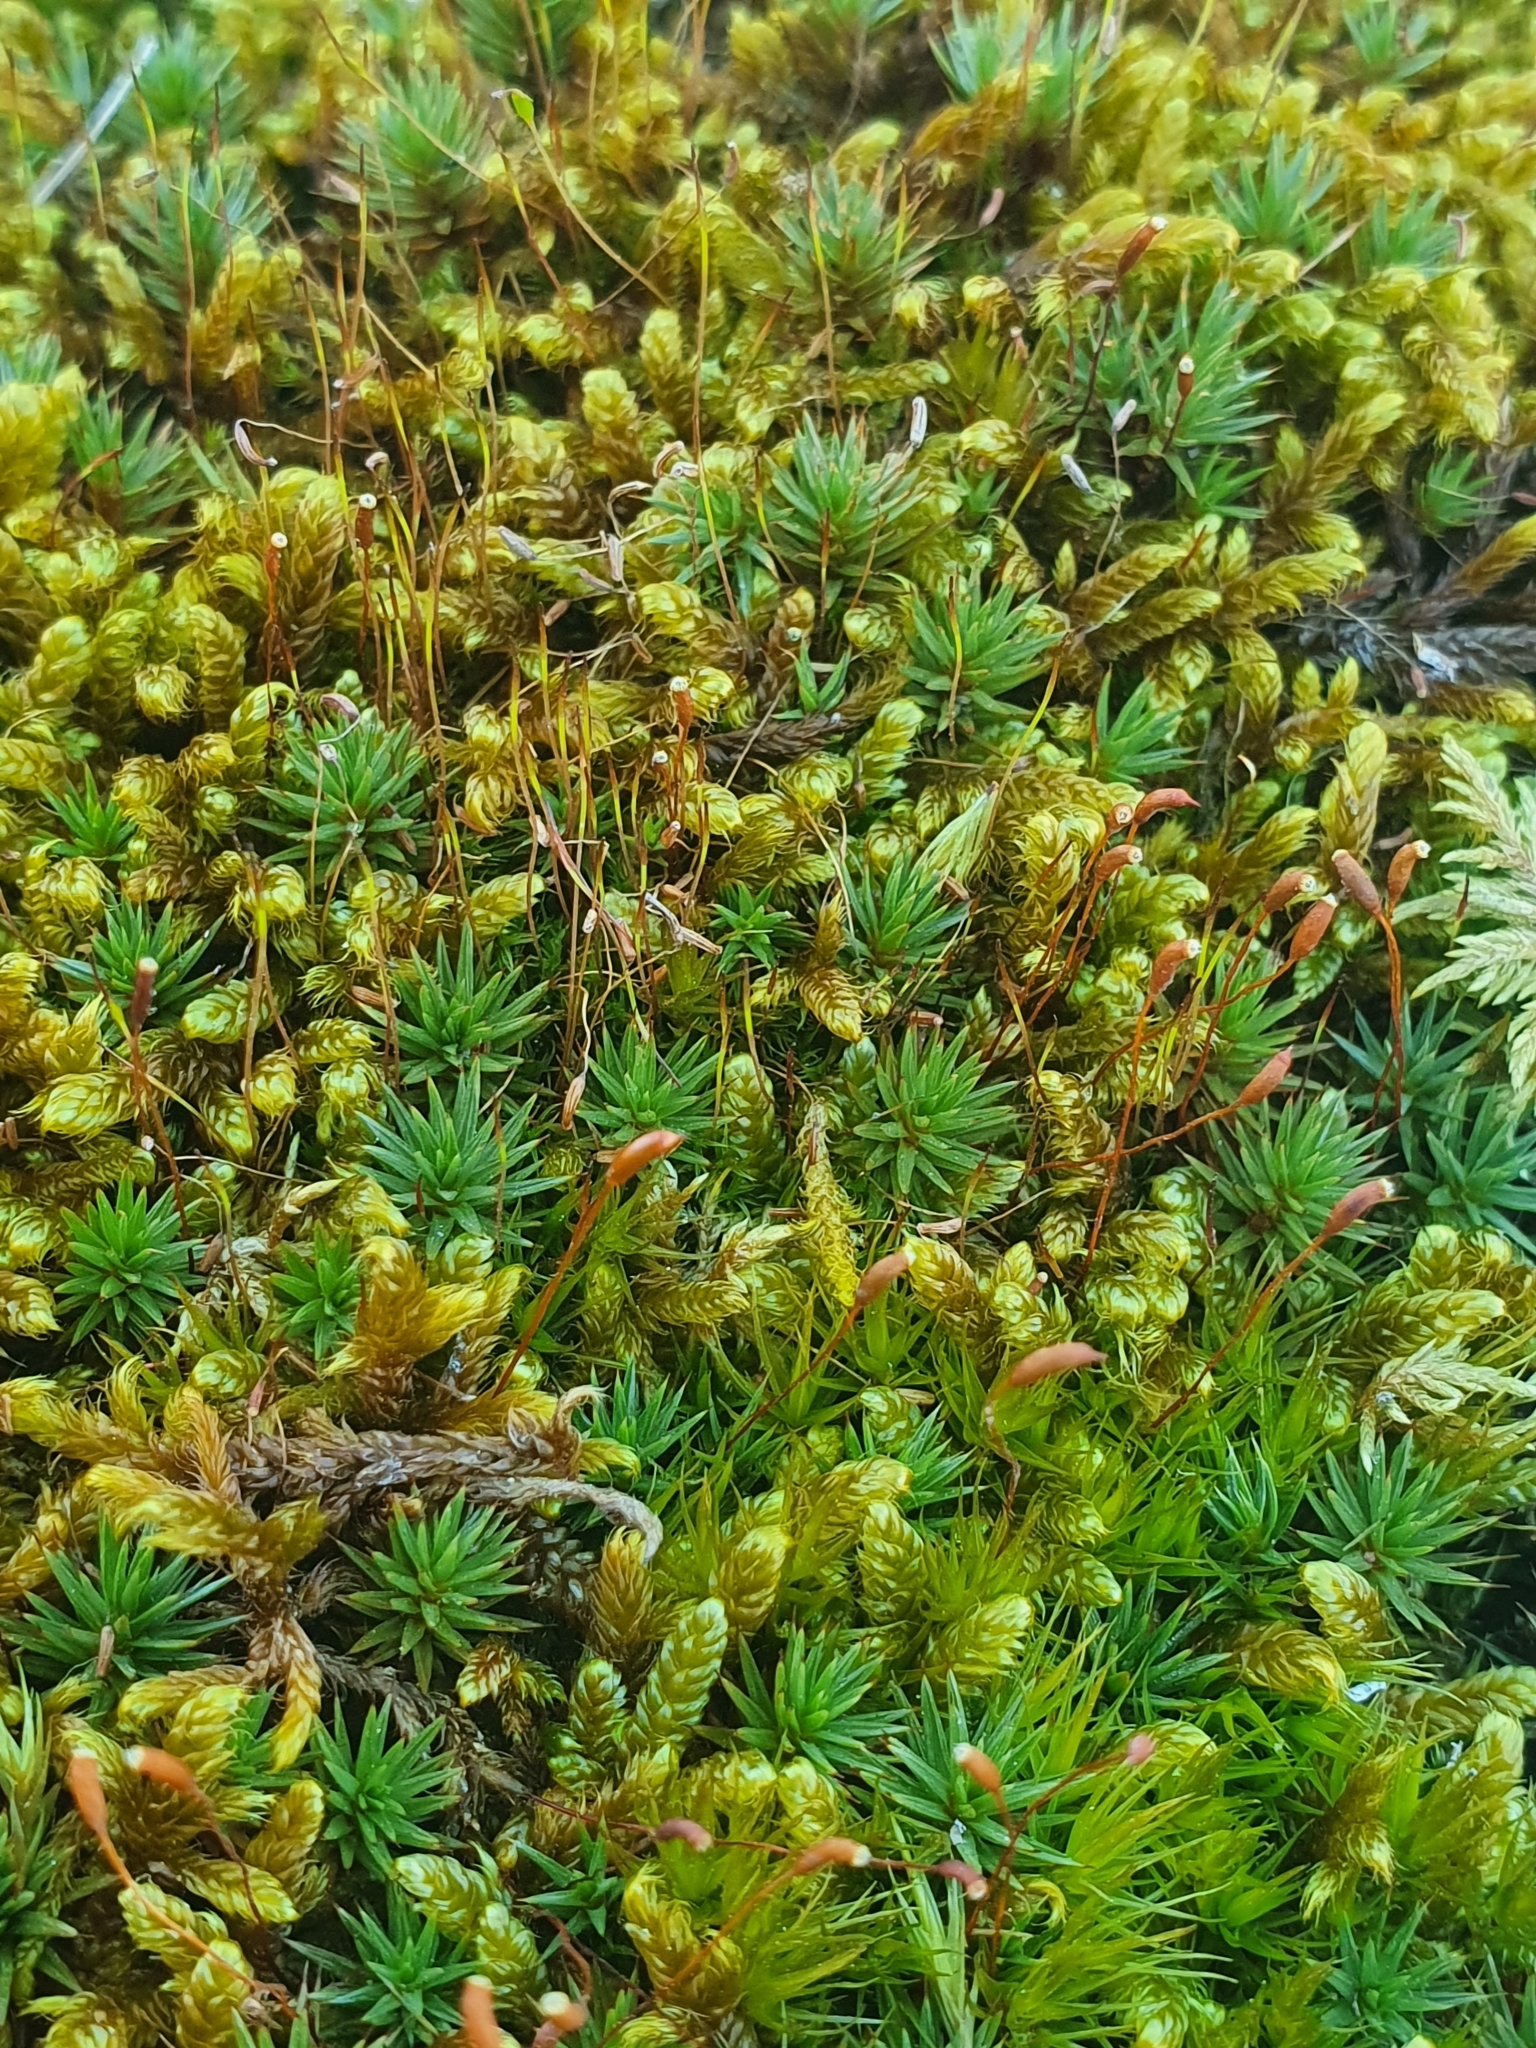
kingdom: Plantae
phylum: Bryophyta
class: Polytrichopsida
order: Polytrichales
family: Polytrichaceae
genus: Polytrichum
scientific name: Polytrichum juniperinum
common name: Juniper haircap moss
